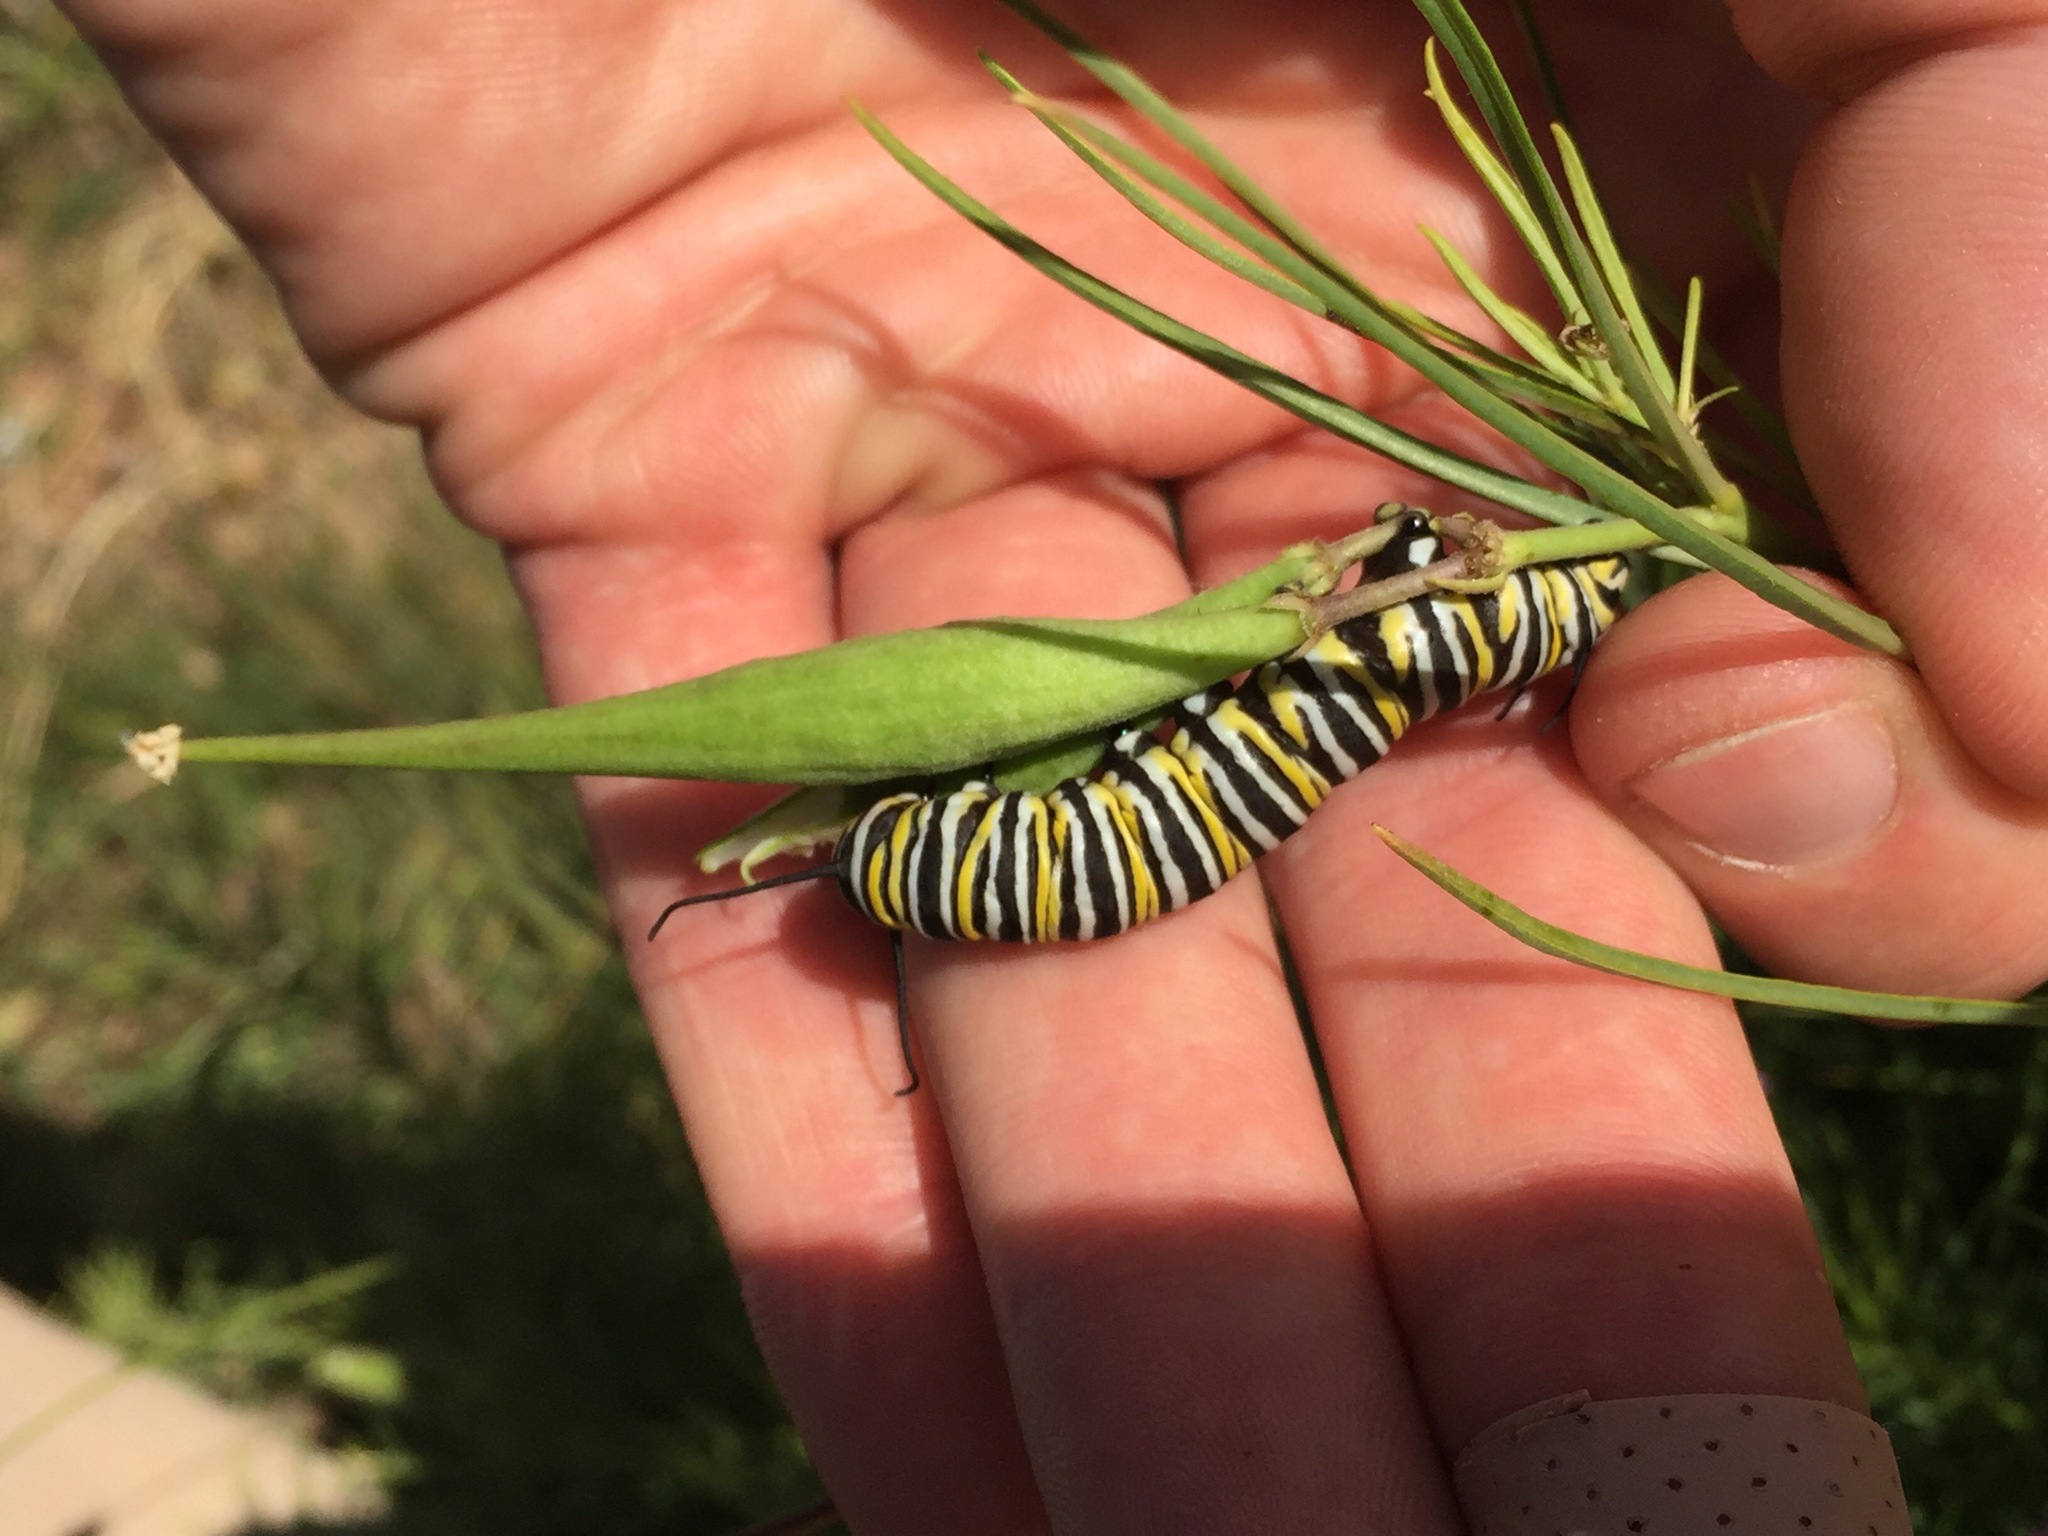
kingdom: Animalia
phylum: Arthropoda
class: Insecta
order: Lepidoptera
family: Nymphalidae
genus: Danaus
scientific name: Danaus plexippus
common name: Monarch
